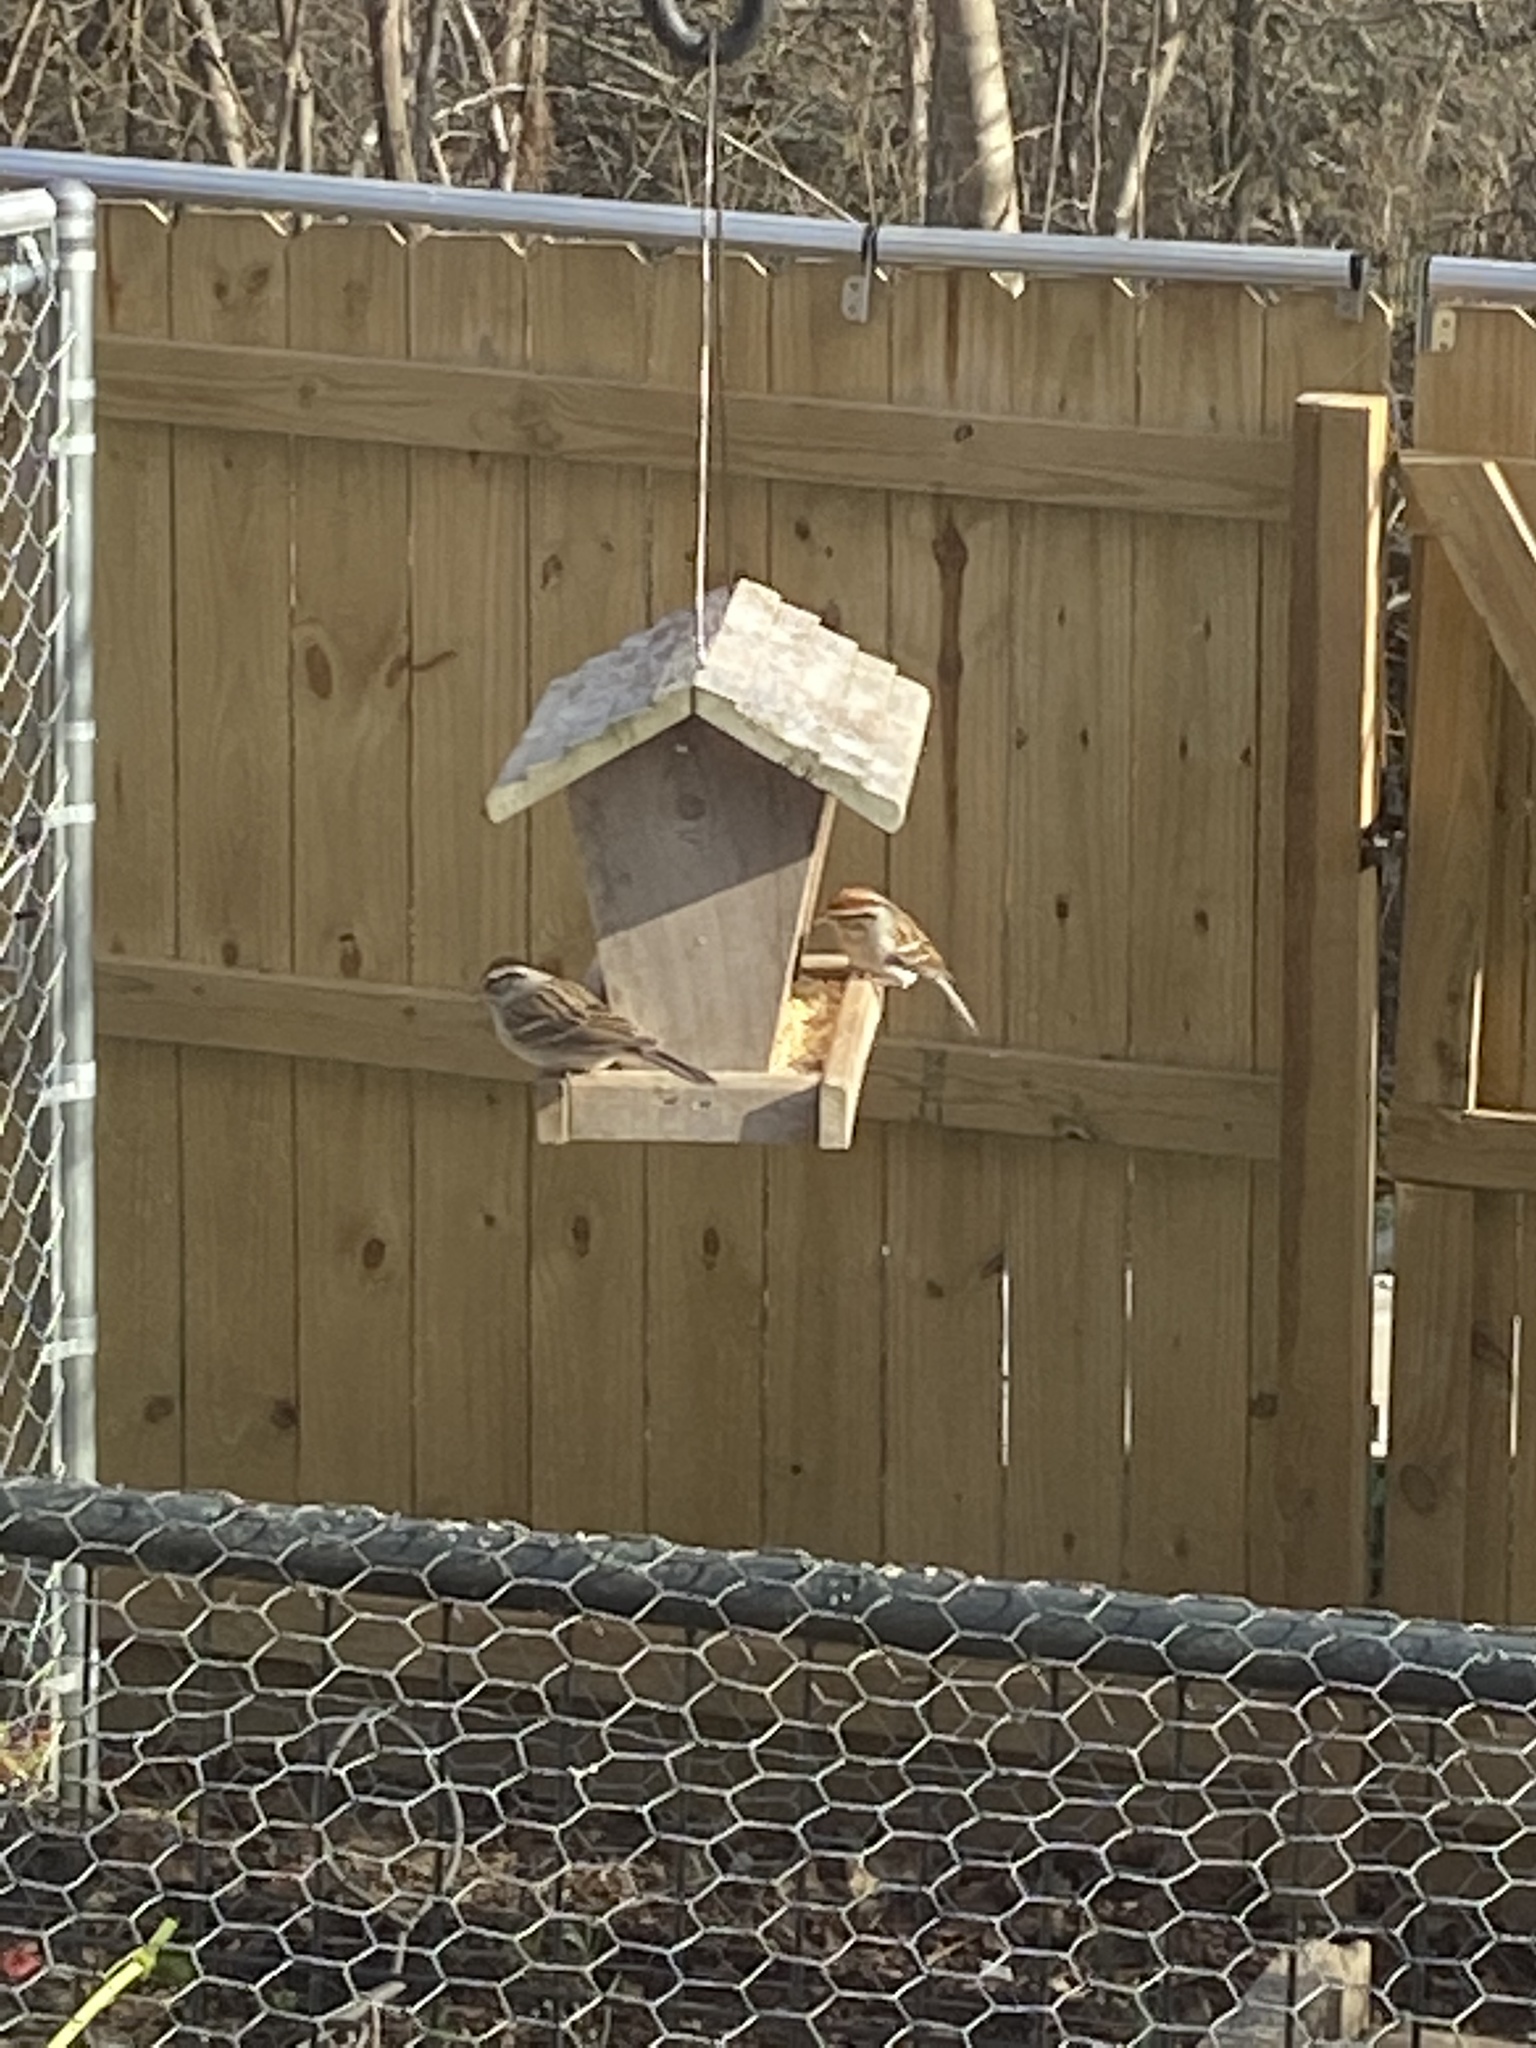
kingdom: Animalia
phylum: Chordata
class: Aves
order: Passeriformes
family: Passerellidae
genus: Spizella
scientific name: Spizella passerina
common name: Chipping sparrow
